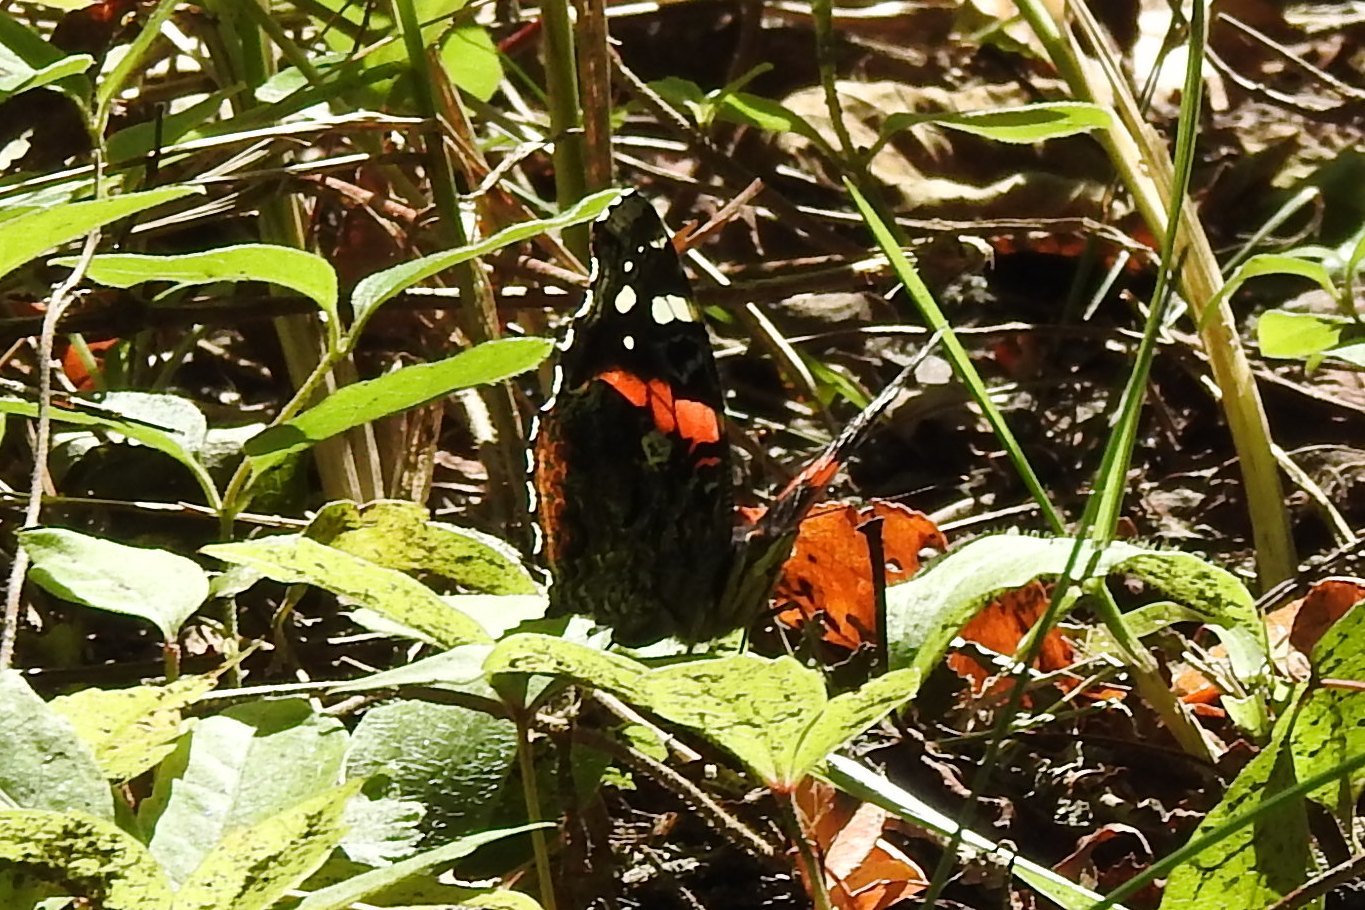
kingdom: Animalia
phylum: Arthropoda
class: Insecta
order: Lepidoptera
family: Nymphalidae
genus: Vanessa
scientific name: Vanessa atalanta
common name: Red admiral
